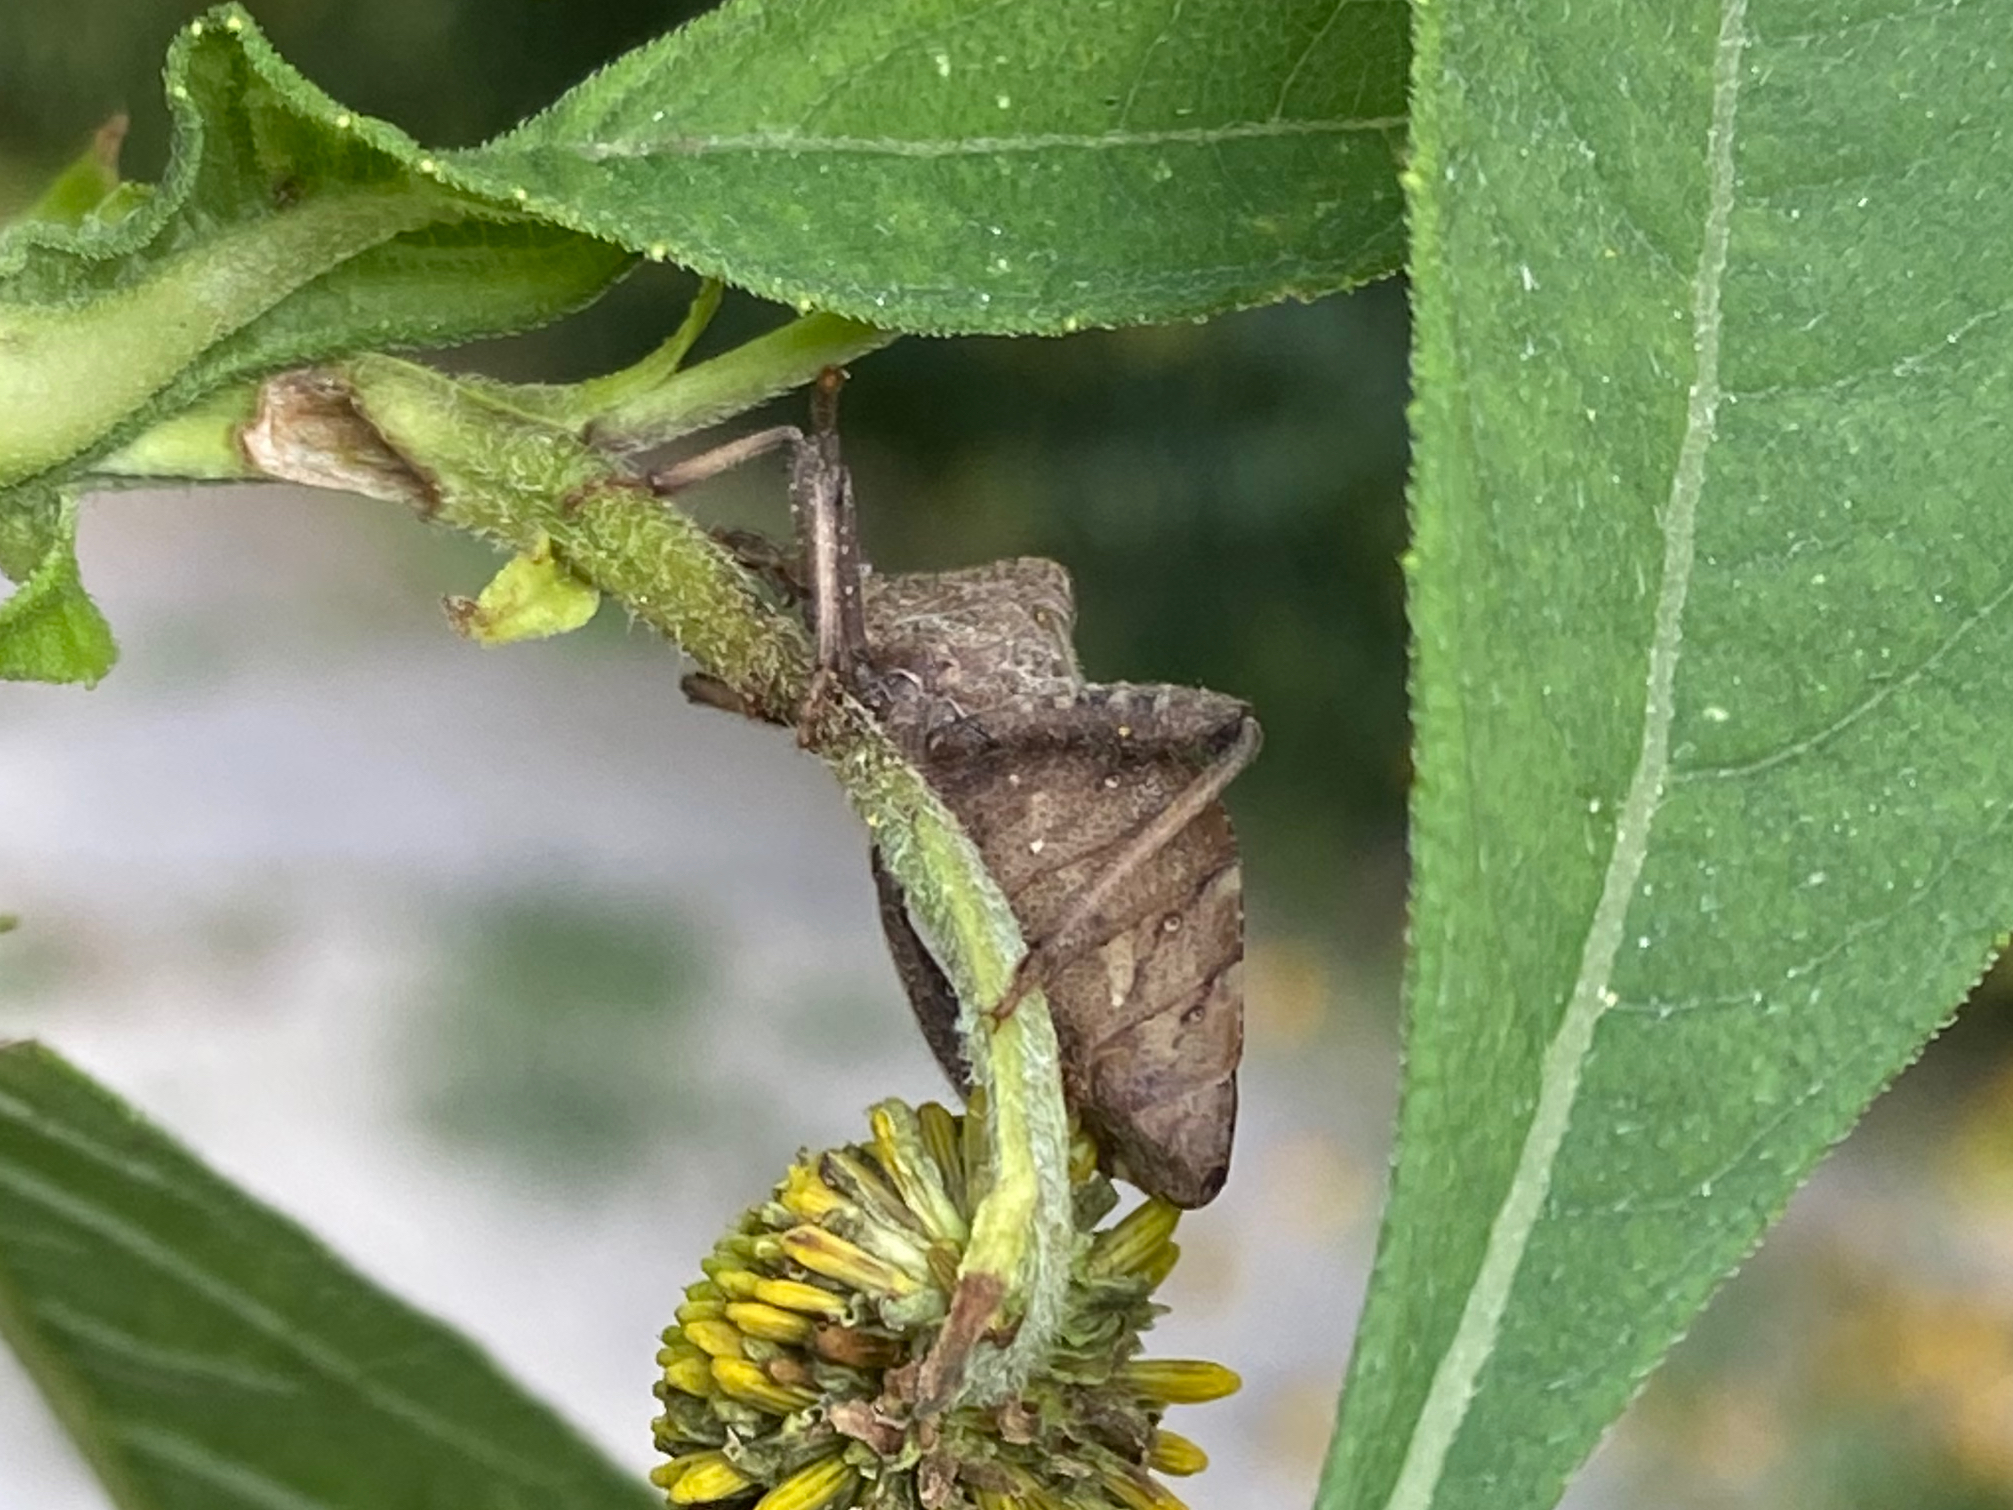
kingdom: Animalia
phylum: Arthropoda
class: Insecta
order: Hemiptera
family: Coreidae
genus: Piezogaster
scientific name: Piezogaster calcarator
